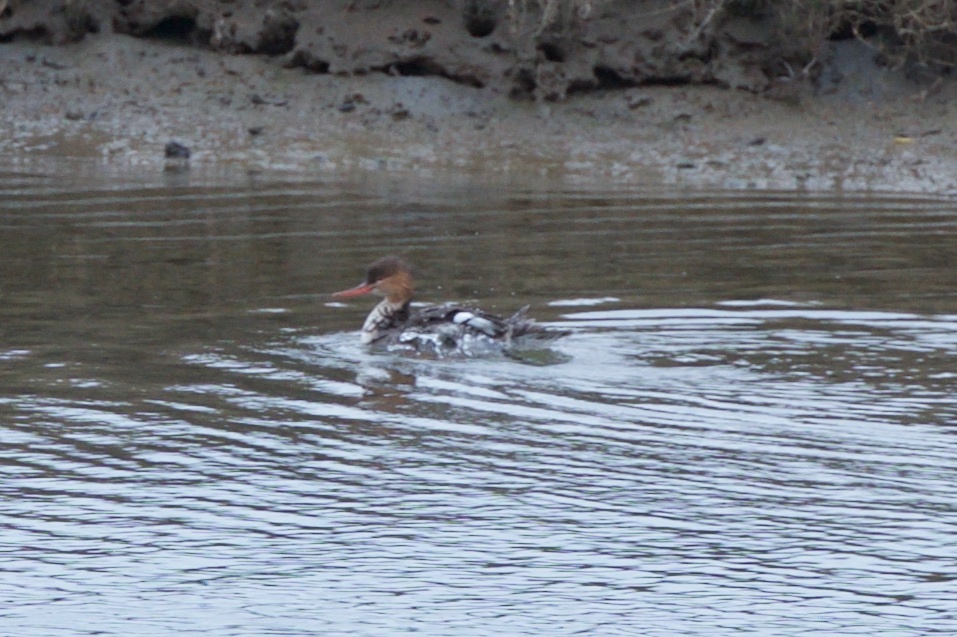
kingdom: Animalia
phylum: Chordata
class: Aves
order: Anseriformes
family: Anatidae
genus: Mergus
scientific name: Mergus serrator
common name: Red-breasted merganser
